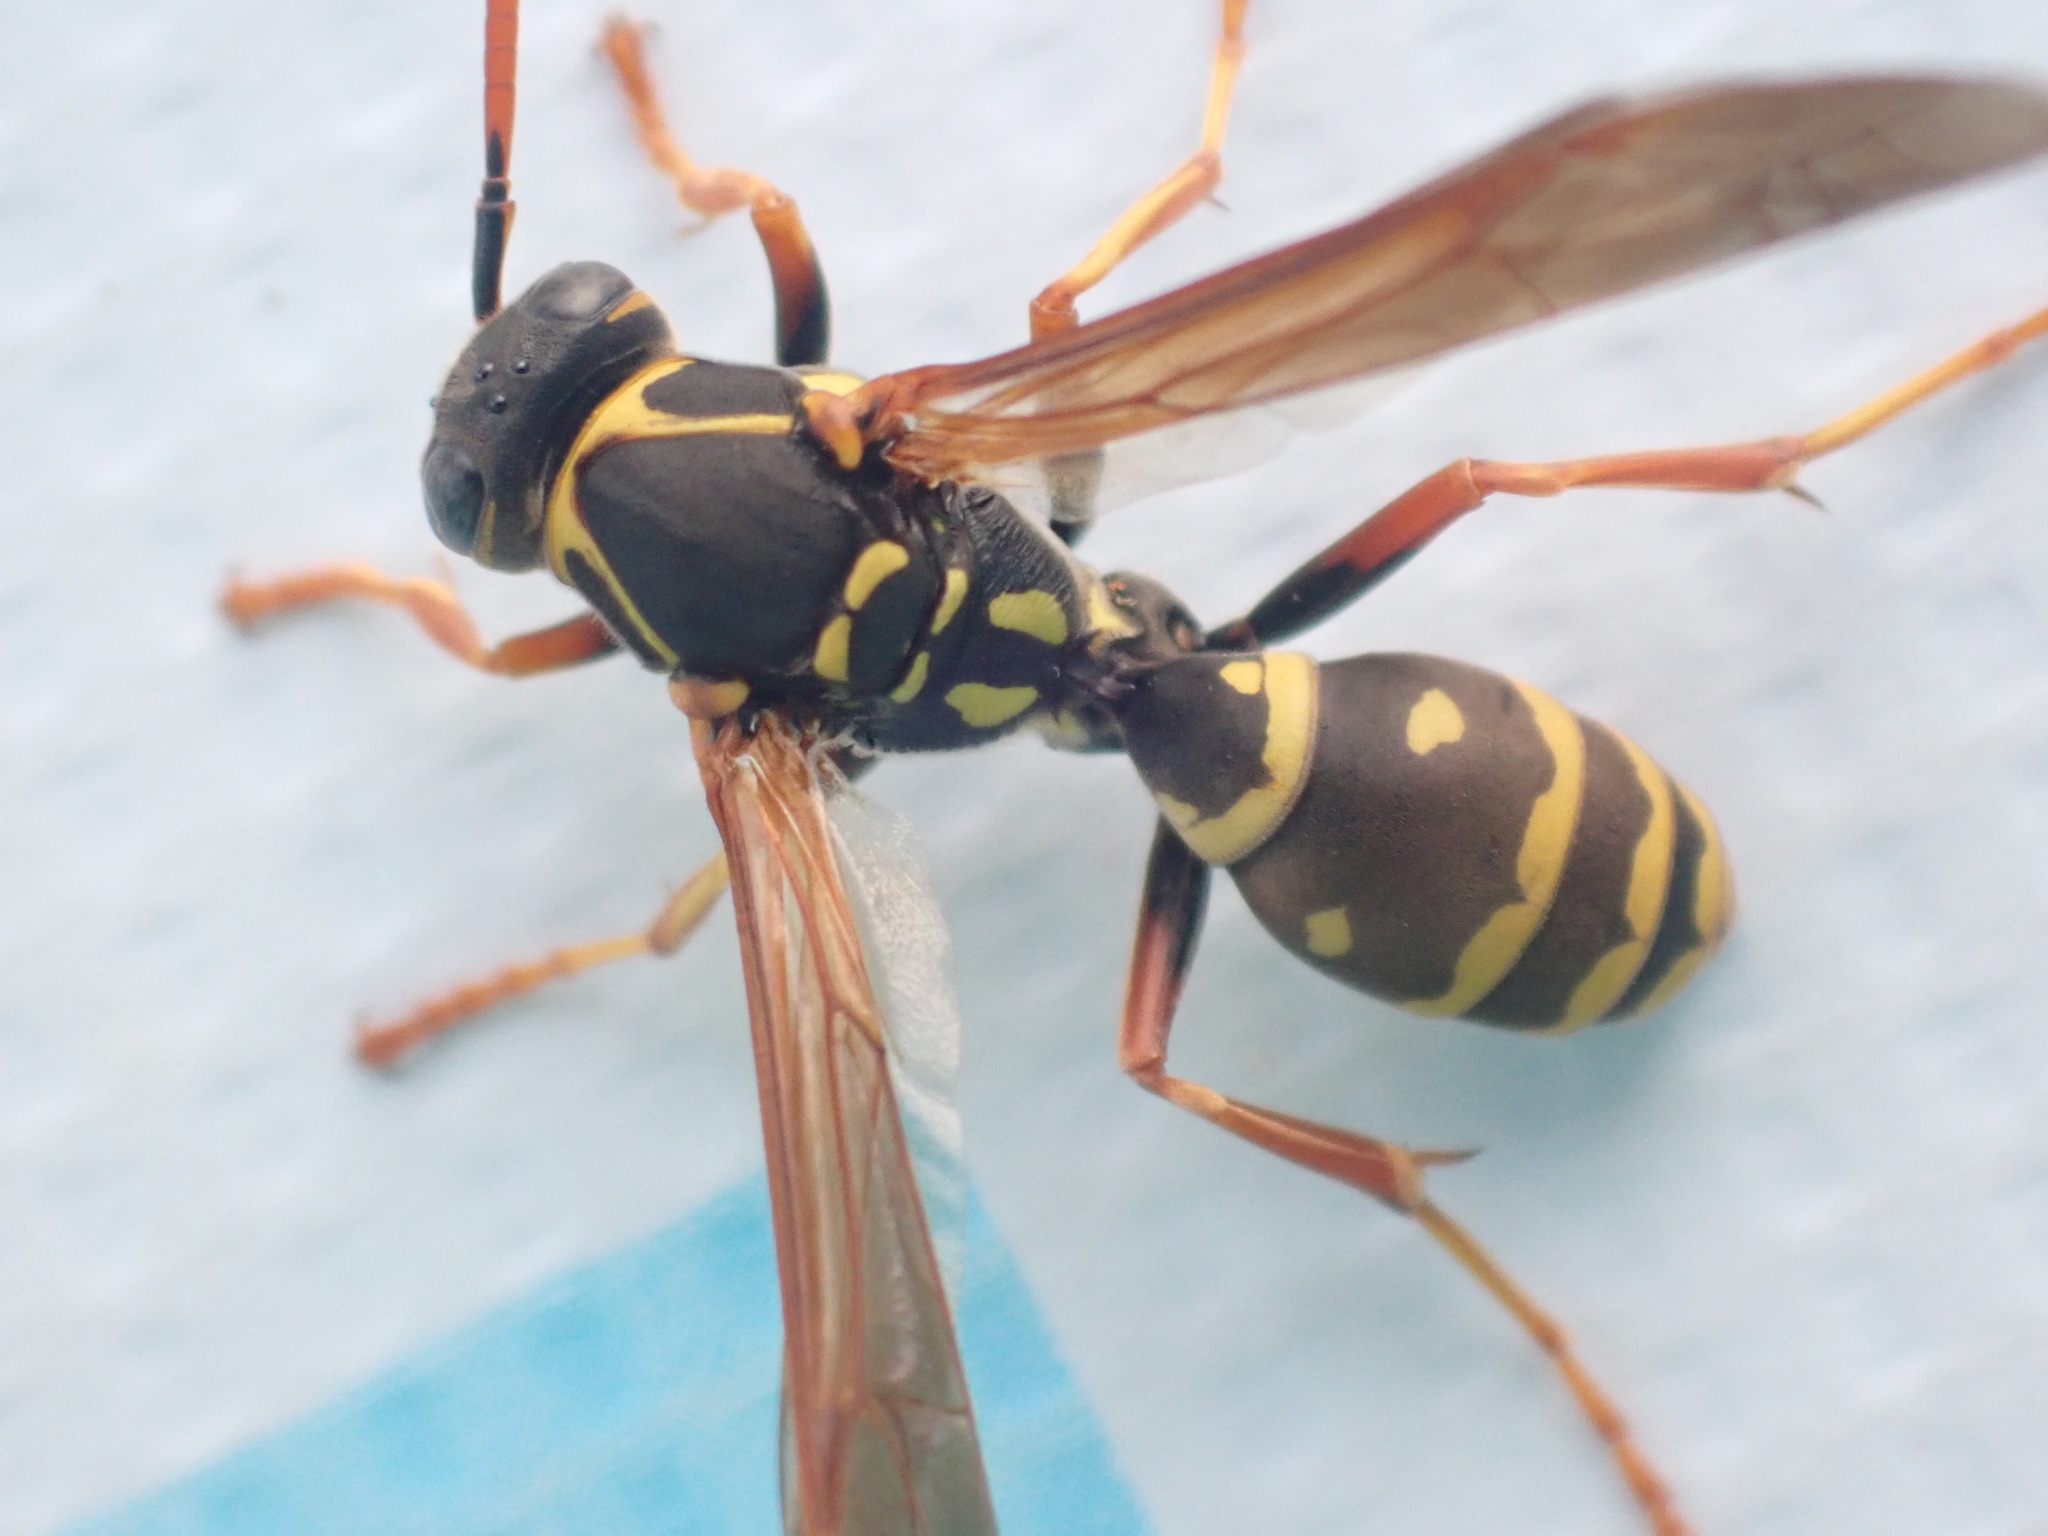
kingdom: Animalia
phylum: Arthropoda
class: Insecta
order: Hymenoptera
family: Eumenidae
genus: Polistes
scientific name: Polistes chinensis
